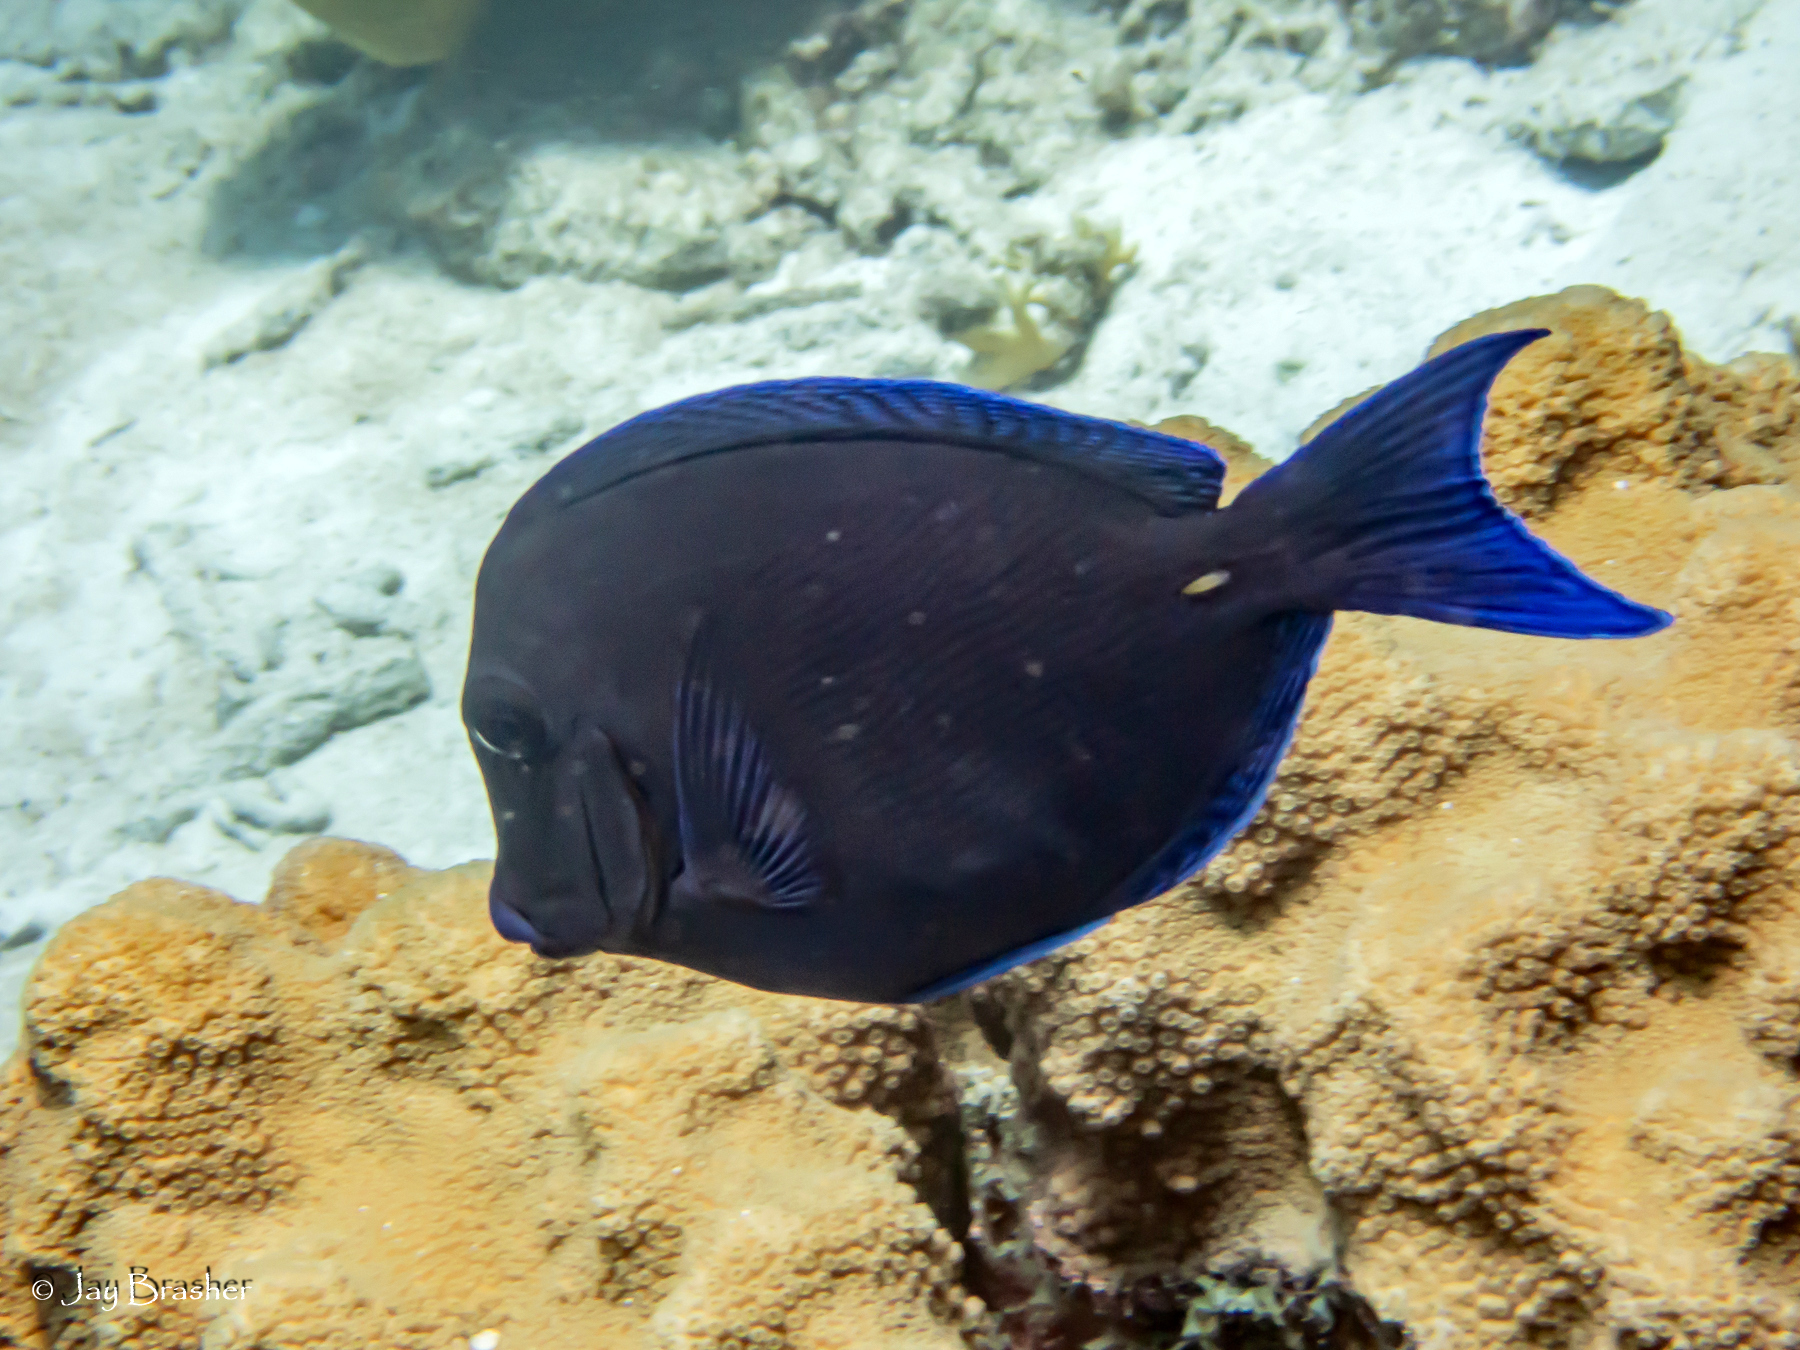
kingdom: Animalia
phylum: Chordata
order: Perciformes
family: Acanthuridae
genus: Acanthurus
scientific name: Acanthurus coeruleus
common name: Blue tang
